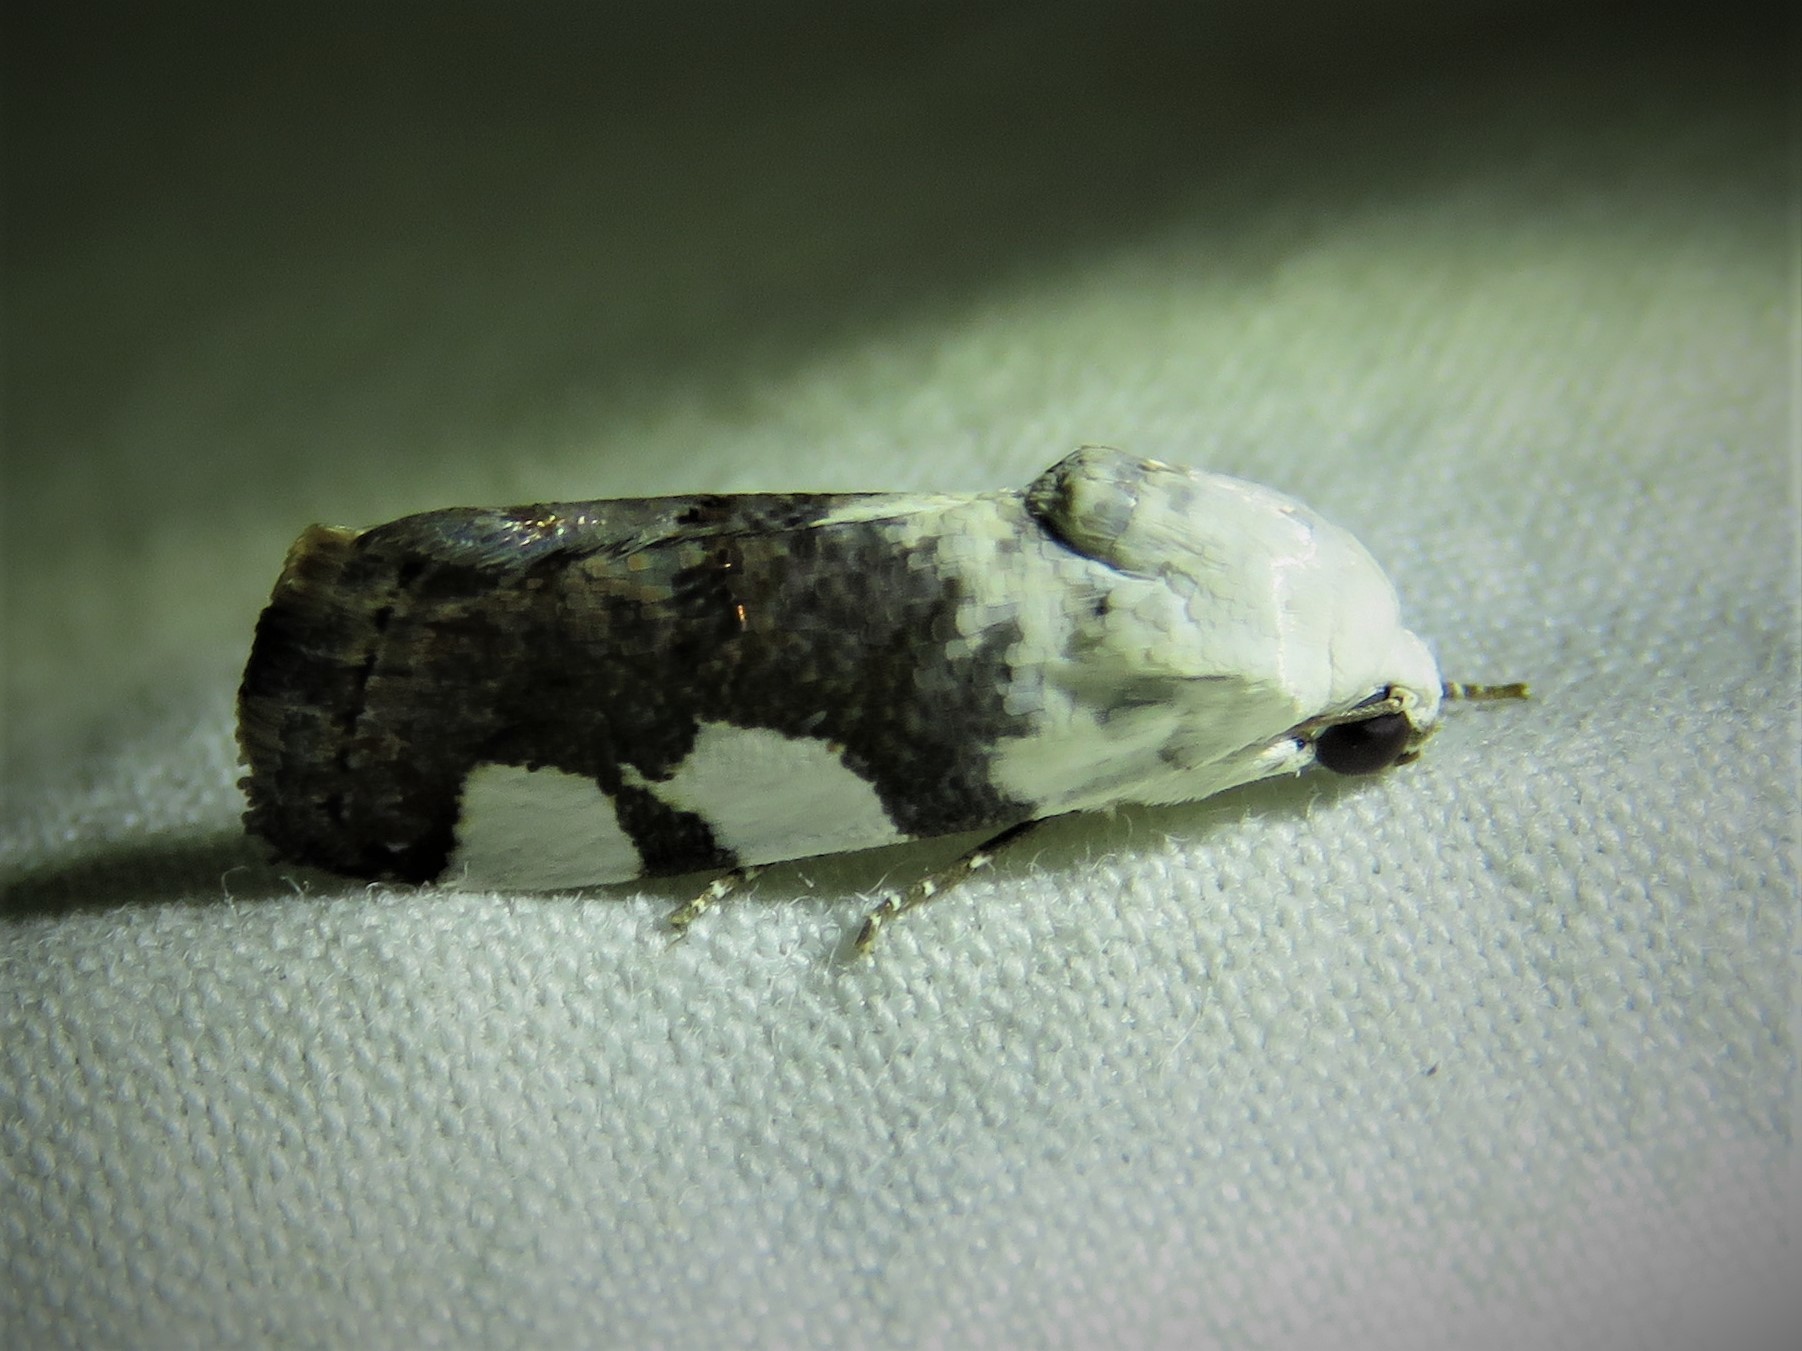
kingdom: Animalia
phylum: Arthropoda
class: Insecta
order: Lepidoptera
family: Noctuidae
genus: Acontia
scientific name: Acontia quadriplaga
